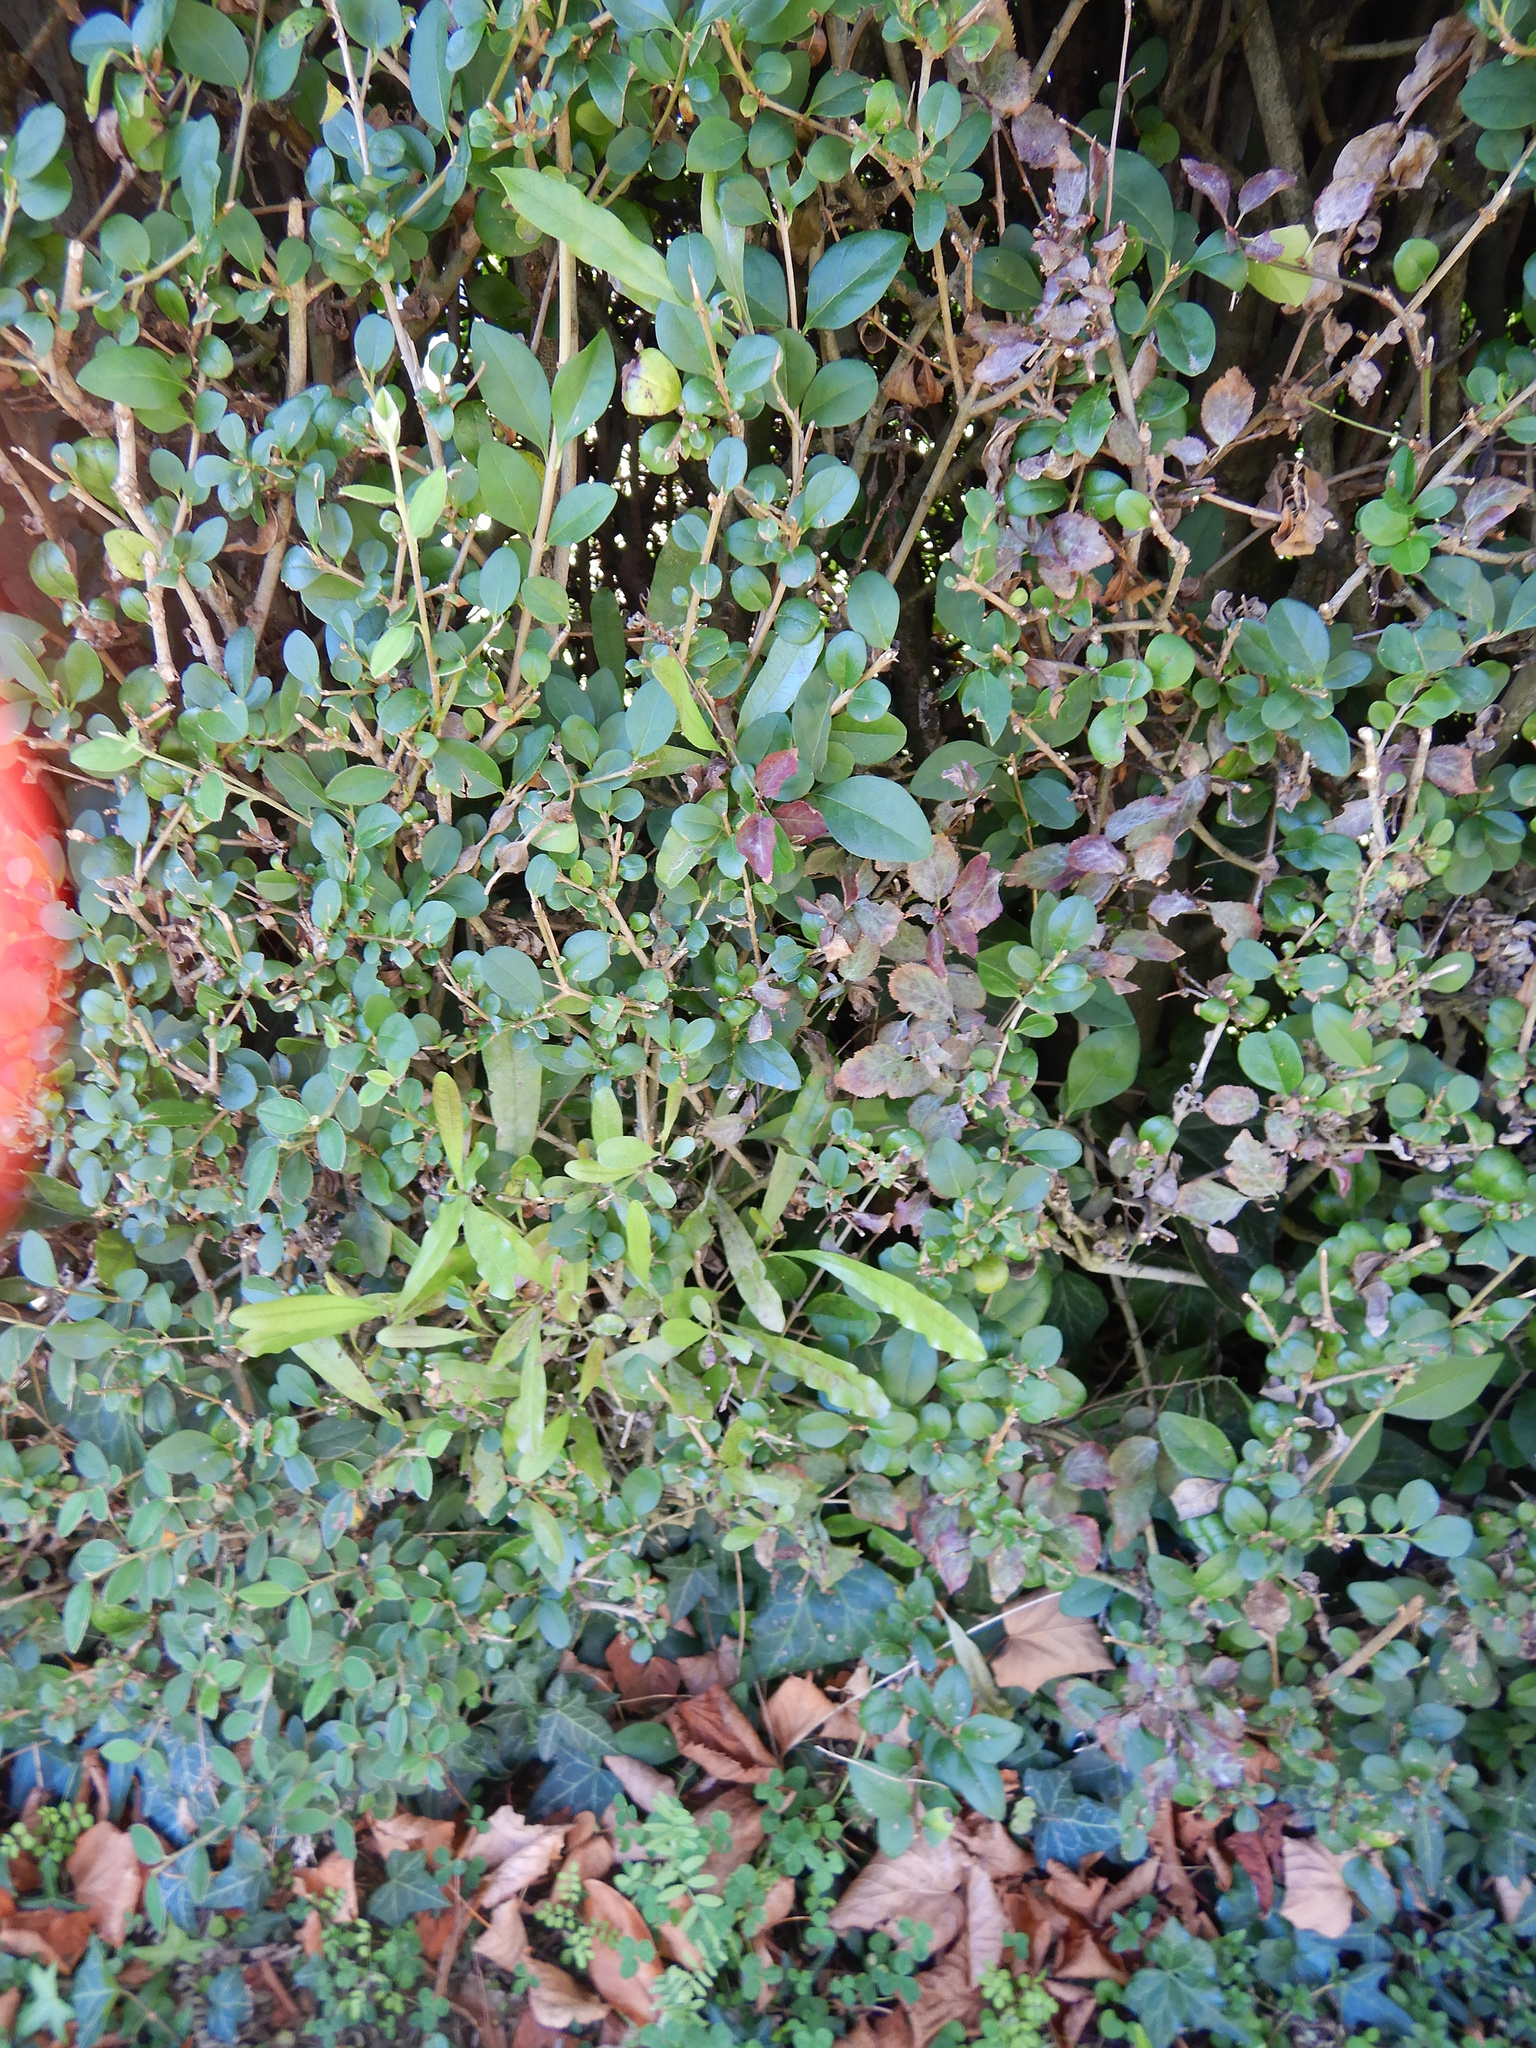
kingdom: Plantae
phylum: Tracheophyta
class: Magnoliopsida
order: Sapindales
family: Sapindaceae
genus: Dodonaea
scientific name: Dodonaea viscosa
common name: Hopbush
